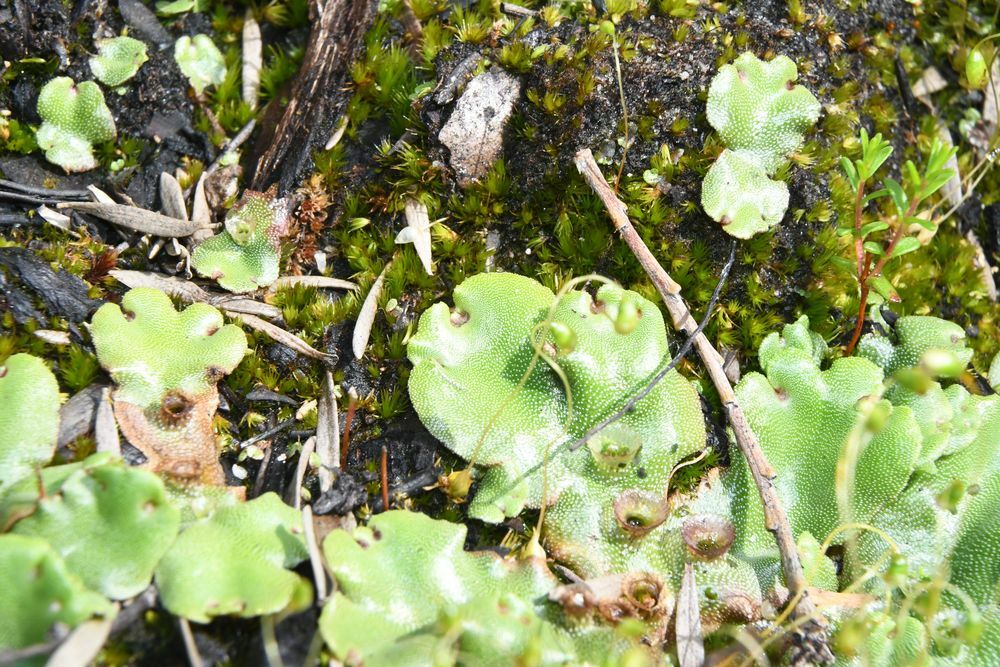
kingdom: Plantae
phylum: Marchantiophyta
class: Marchantiopsida
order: Marchantiales
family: Marchantiaceae
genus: Marchantia
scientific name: Marchantia berteroana
